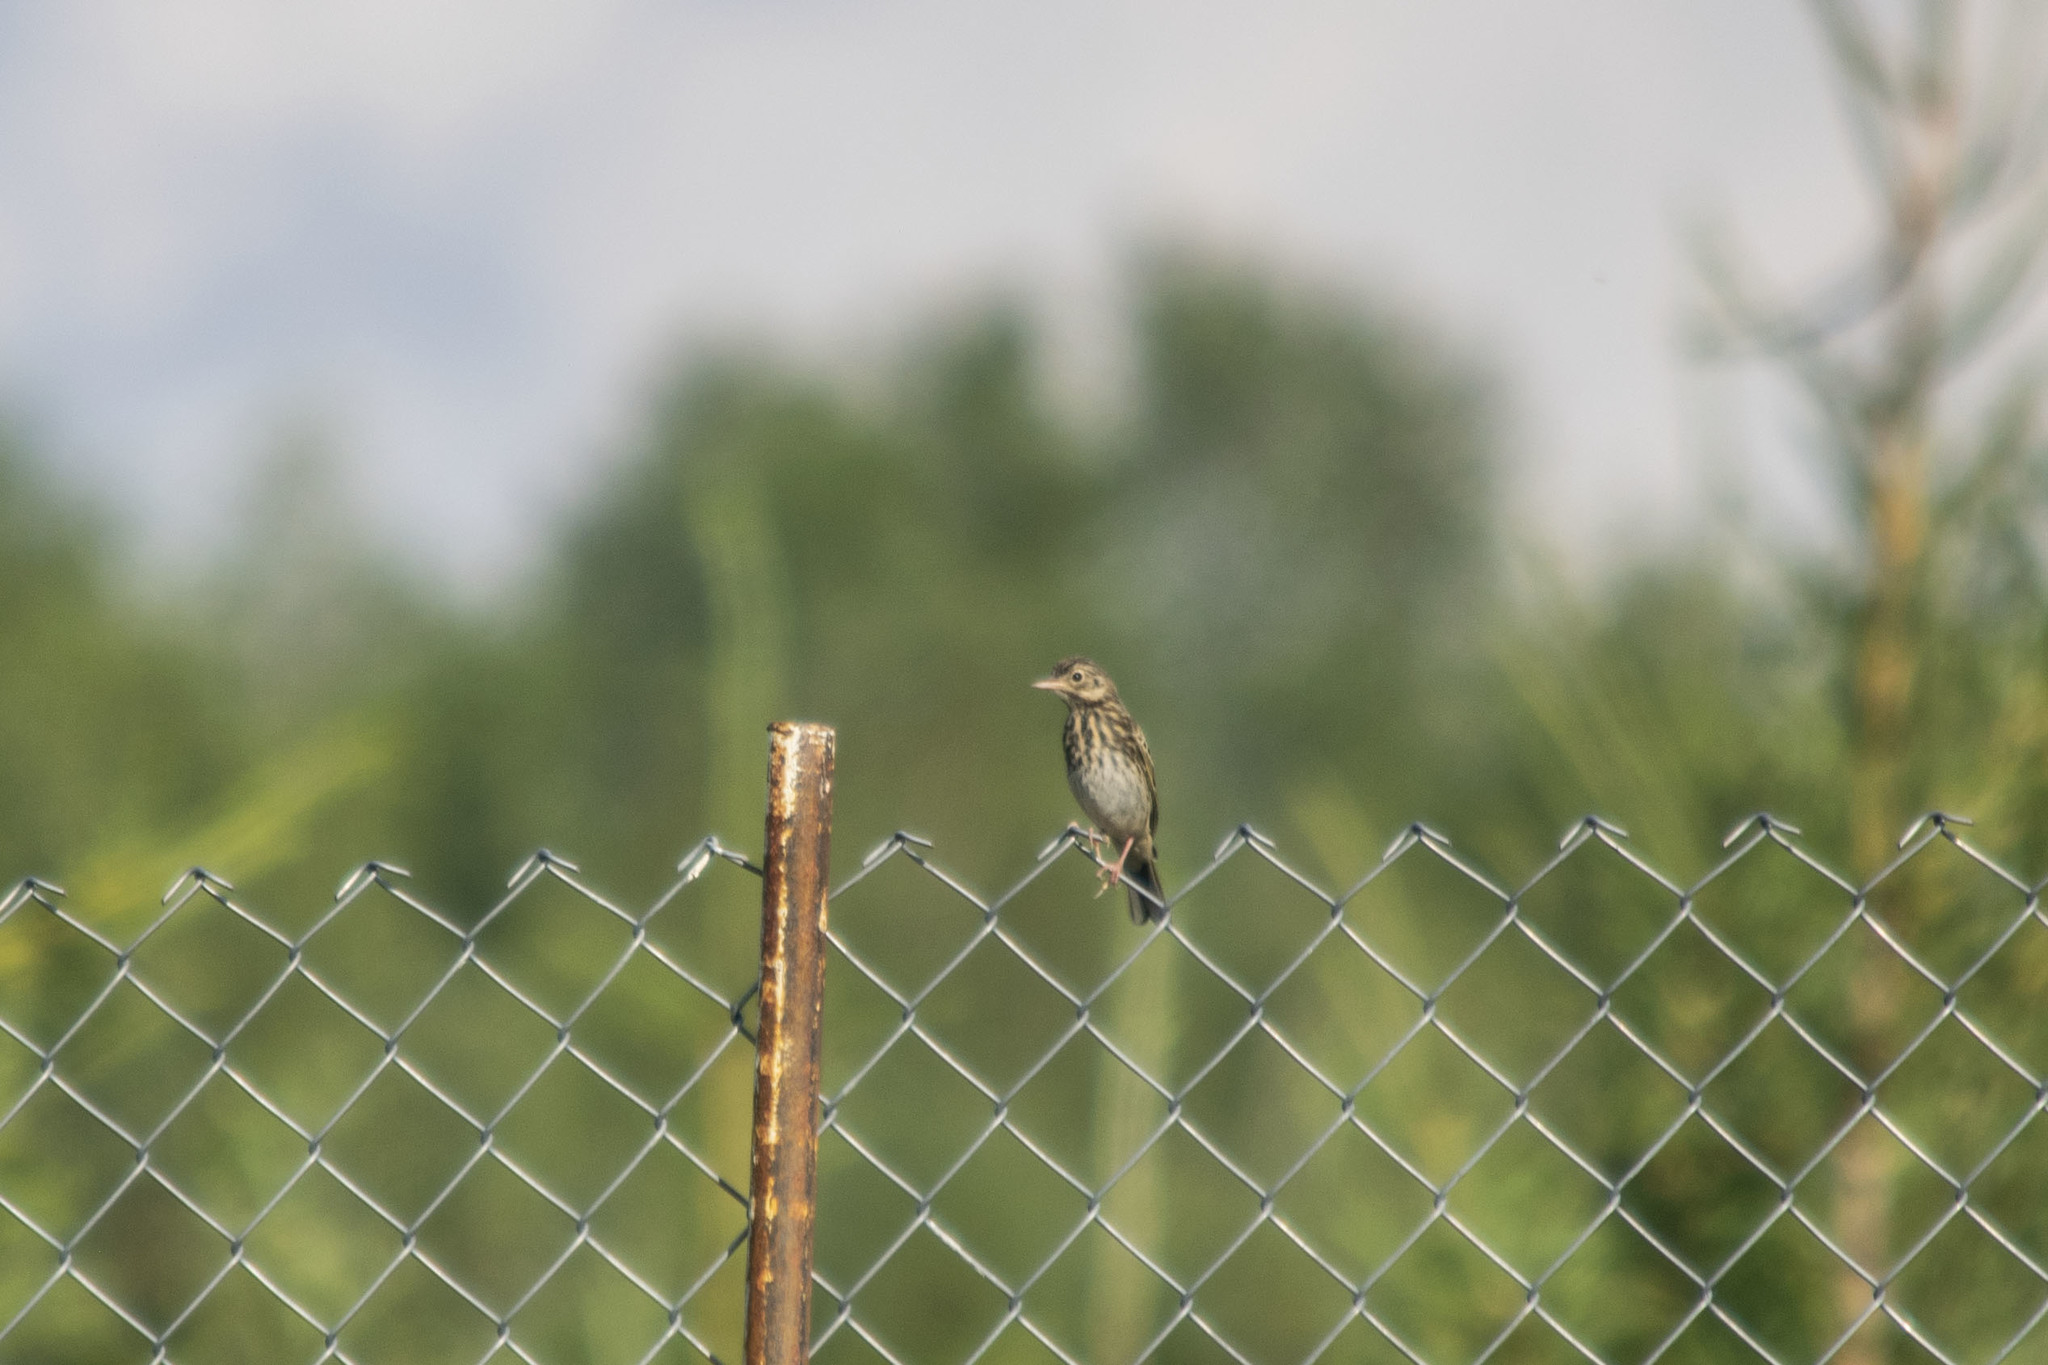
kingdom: Animalia
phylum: Chordata
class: Aves
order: Passeriformes
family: Motacillidae
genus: Anthus
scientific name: Anthus trivialis
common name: Tree pipit
